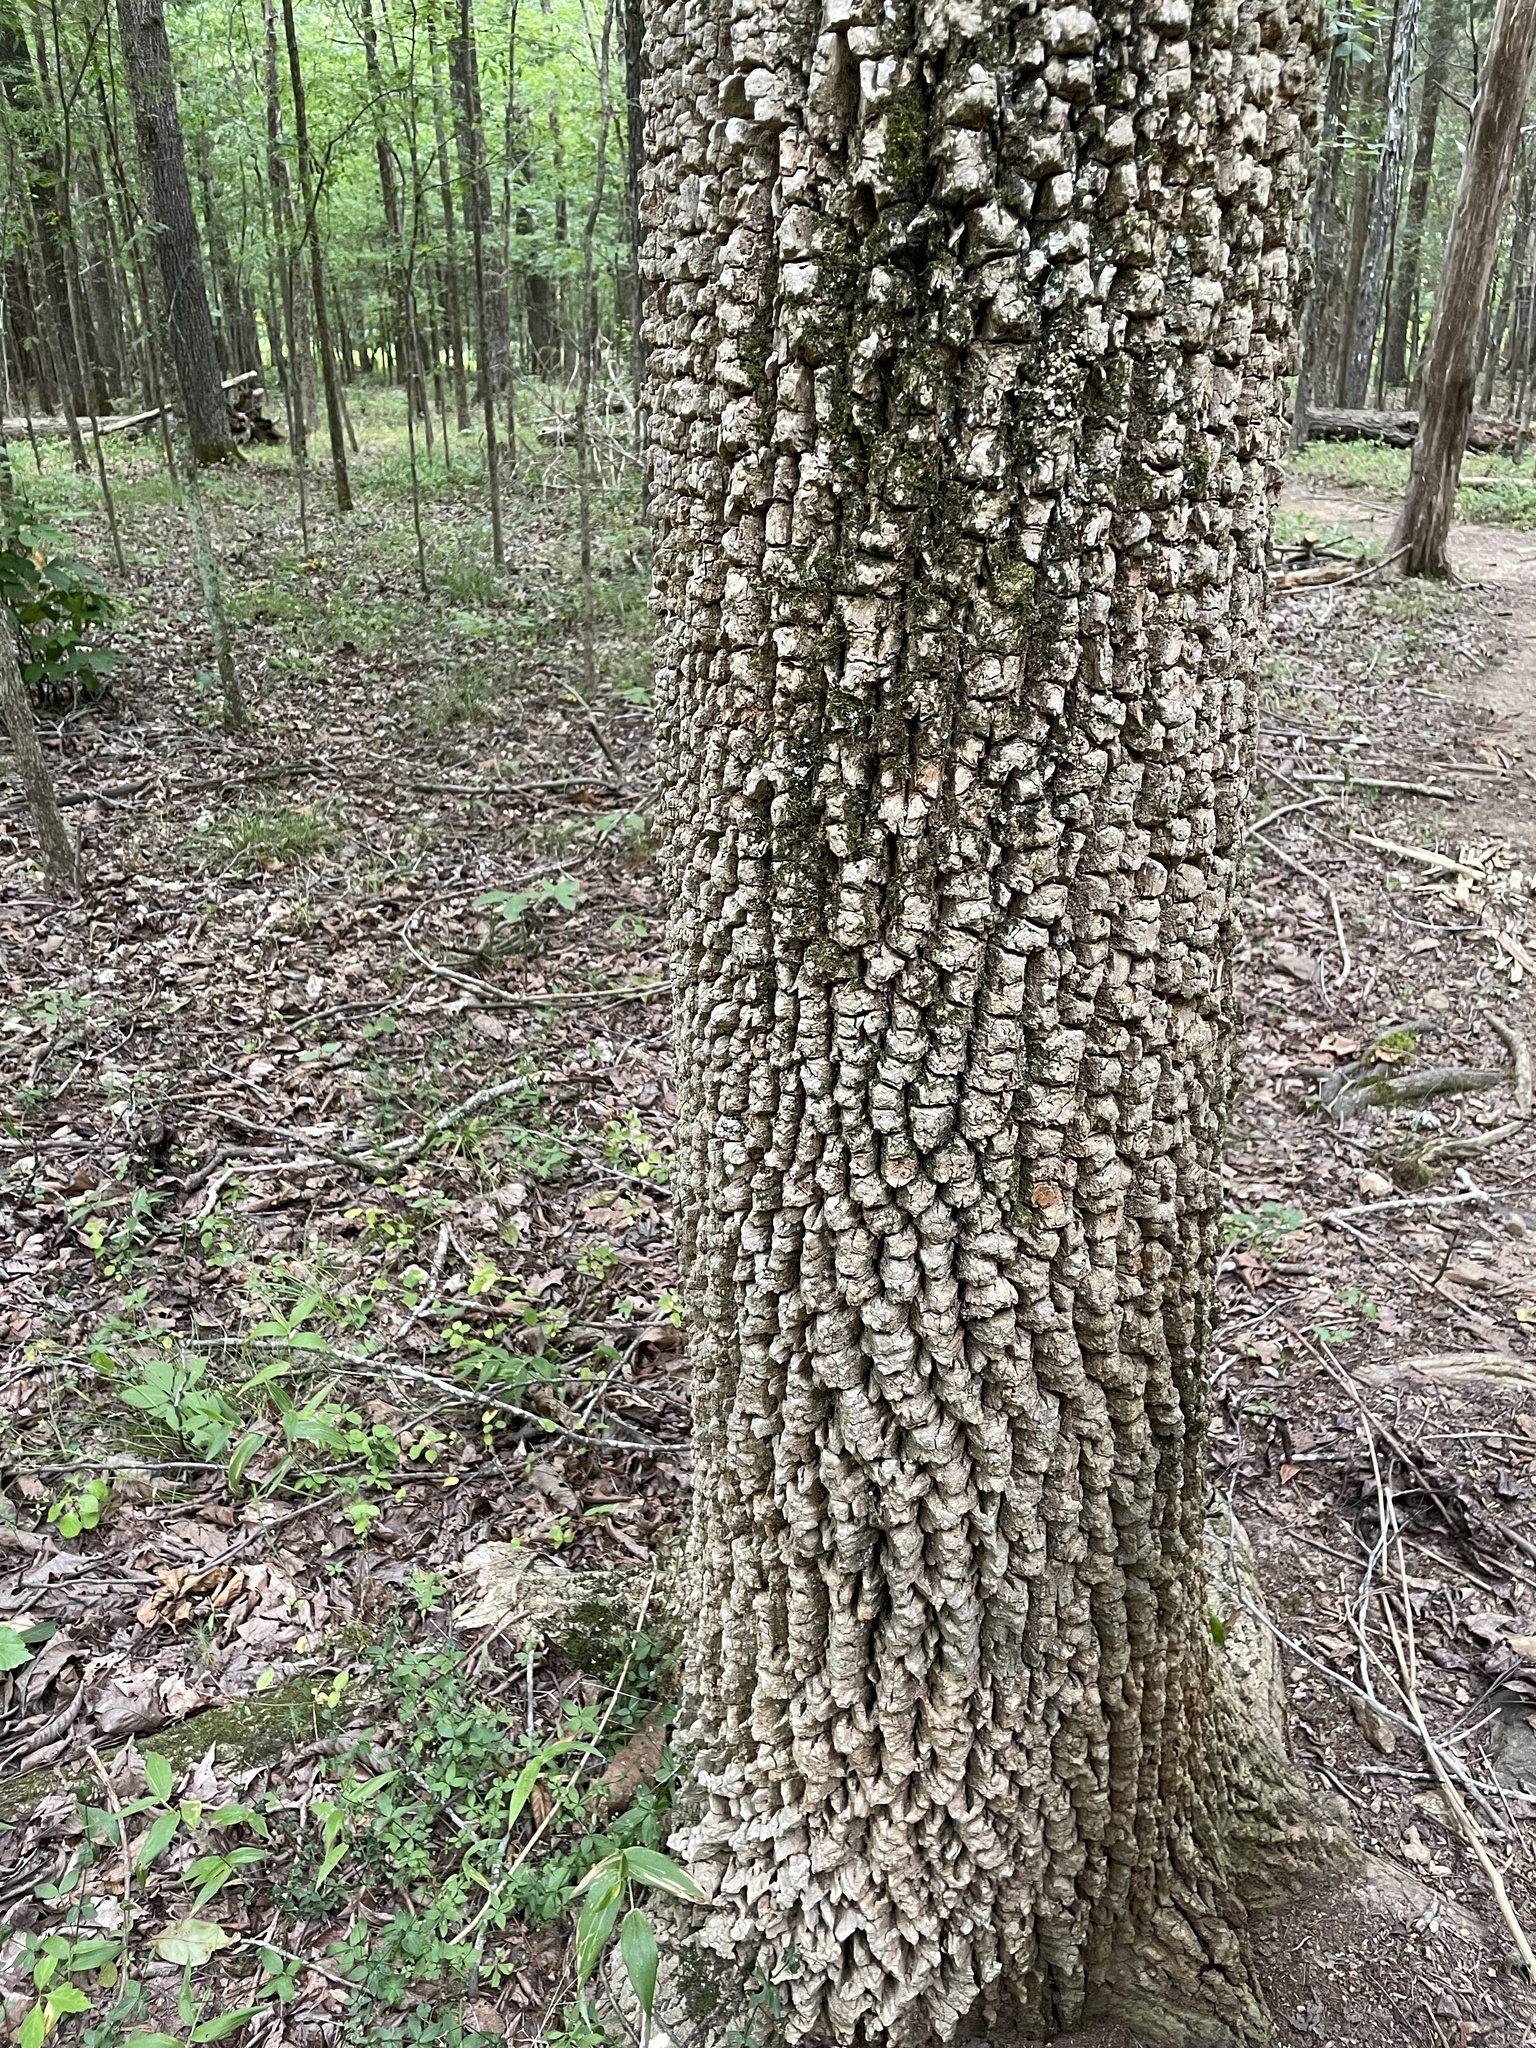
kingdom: Plantae
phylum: Tracheophyta
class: Magnoliopsida
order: Ericales
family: Ebenaceae
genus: Diospyros
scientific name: Diospyros virginiana
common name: Persimmon
